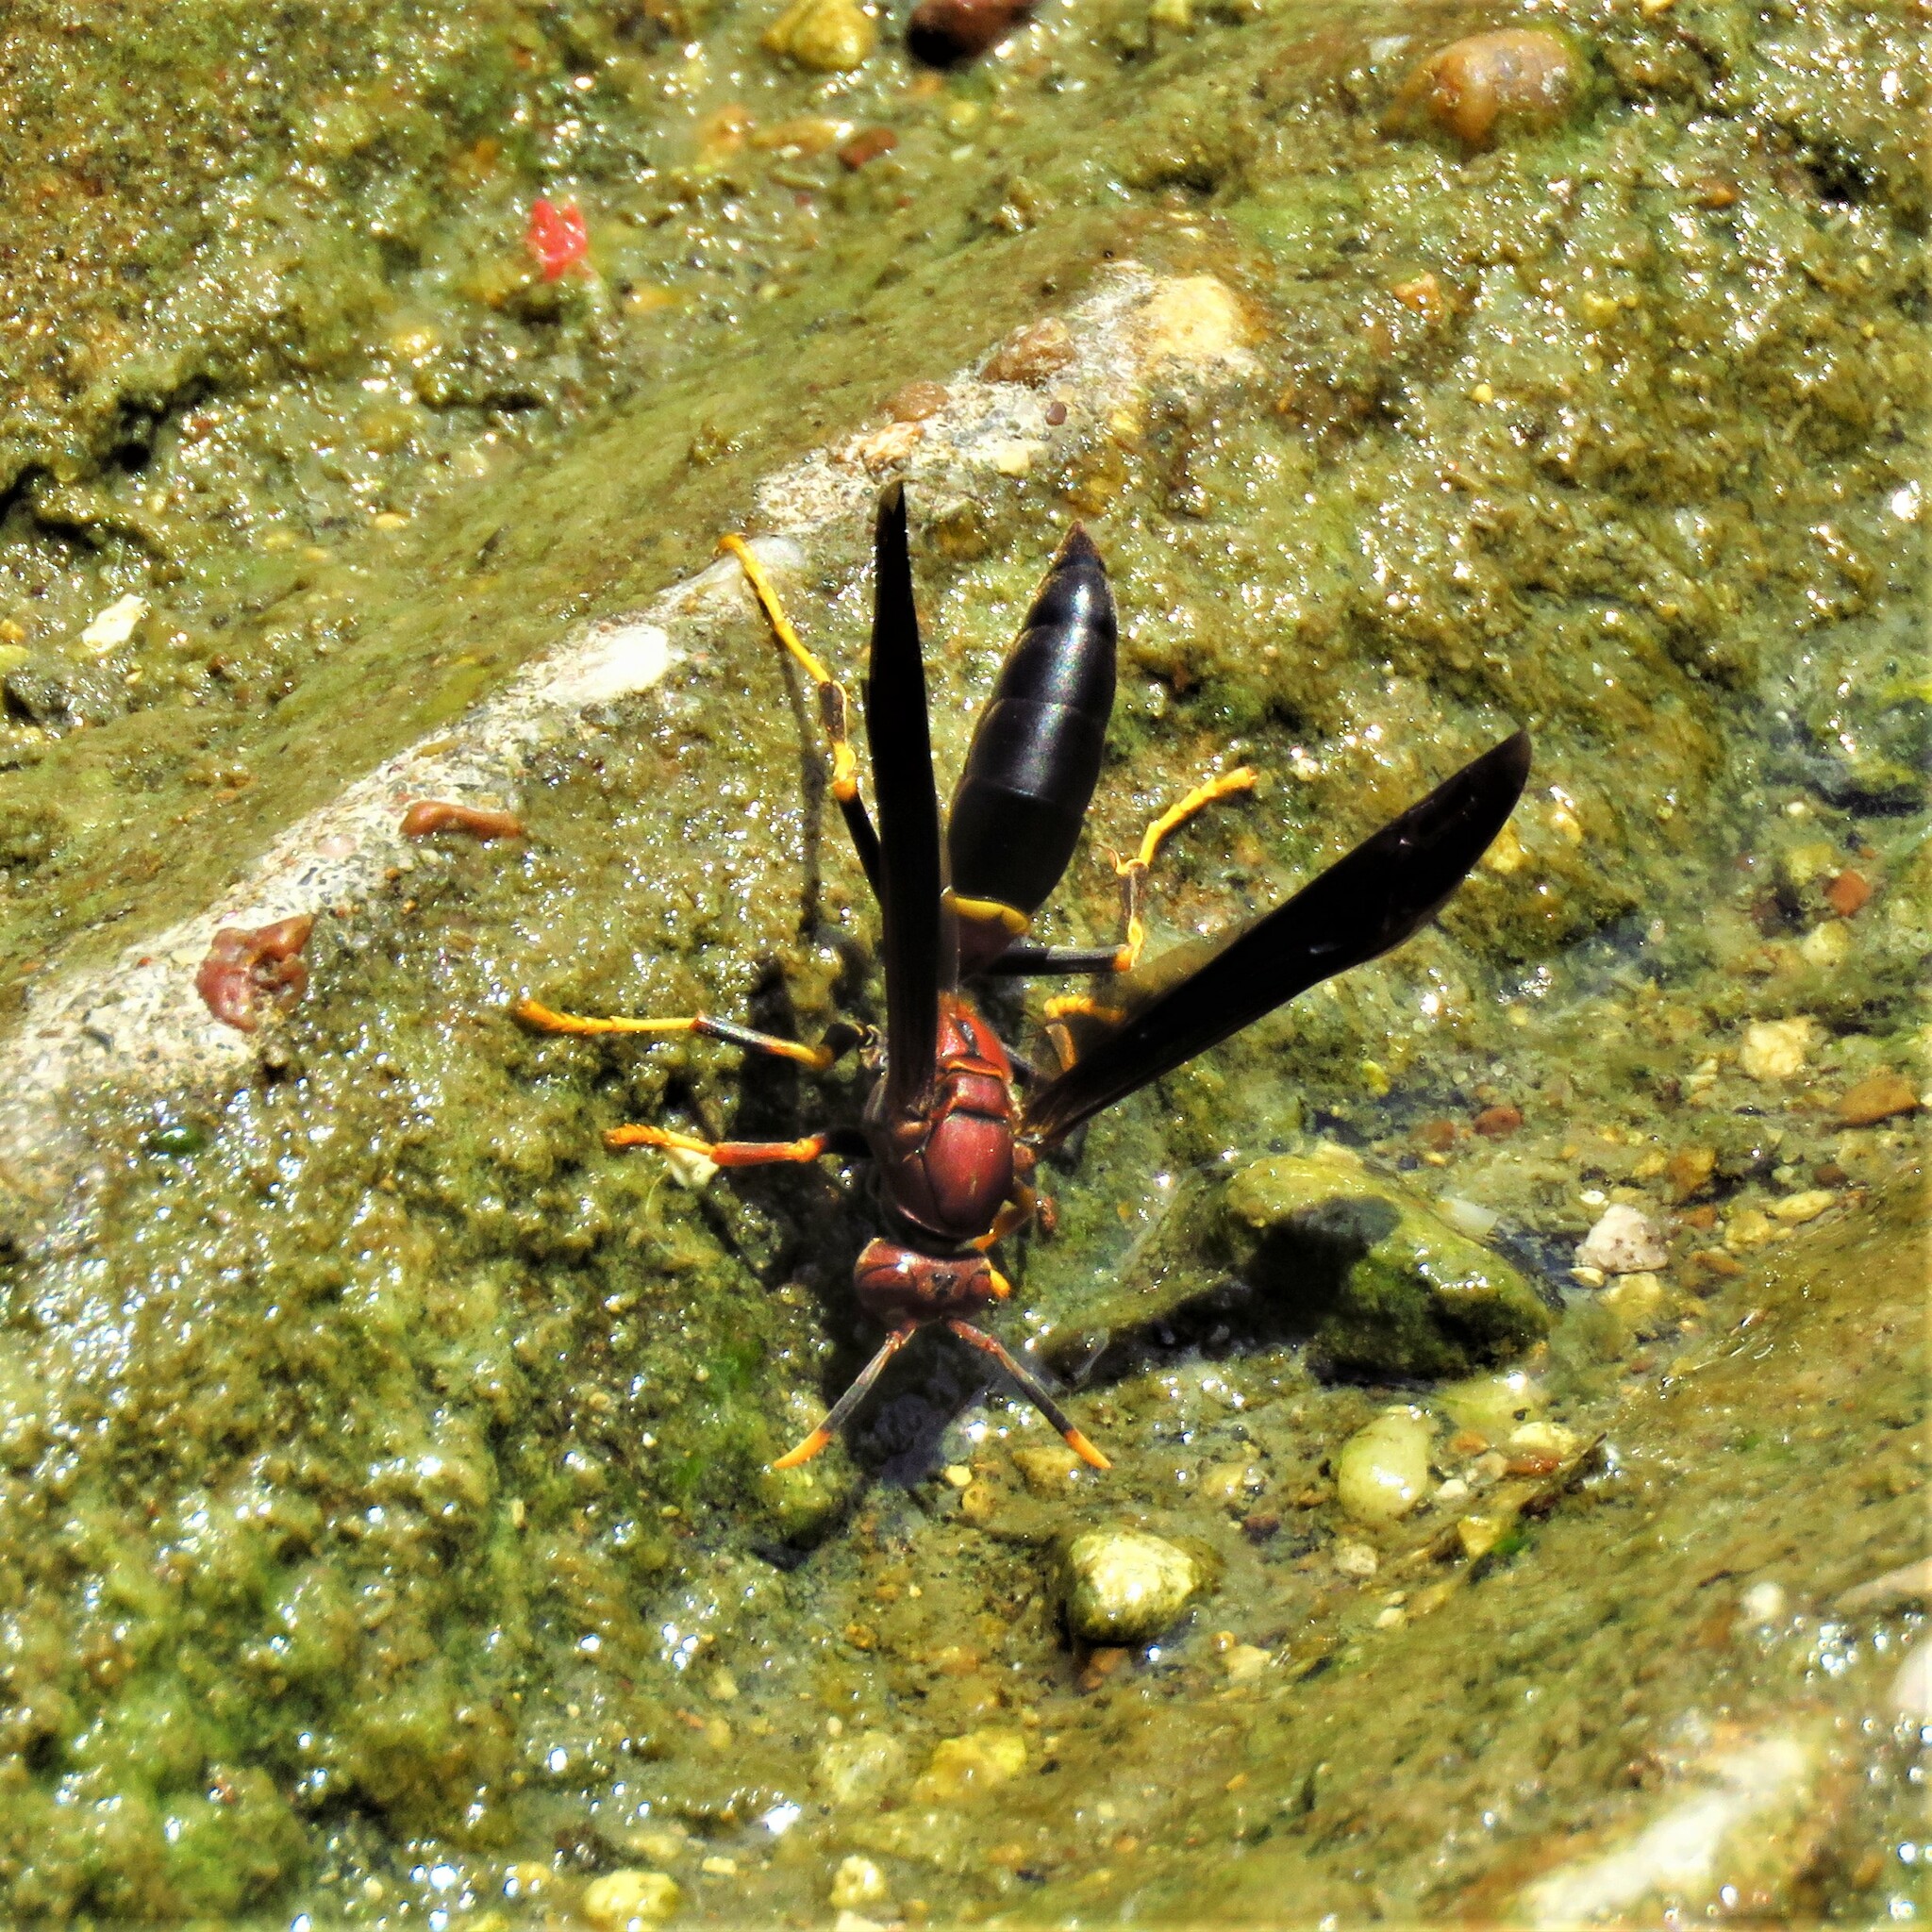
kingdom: Animalia
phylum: Arthropoda
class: Insecta
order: Hymenoptera
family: Eumenidae
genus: Polistes
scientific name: Polistes annularis
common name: Ringed paper wasp
